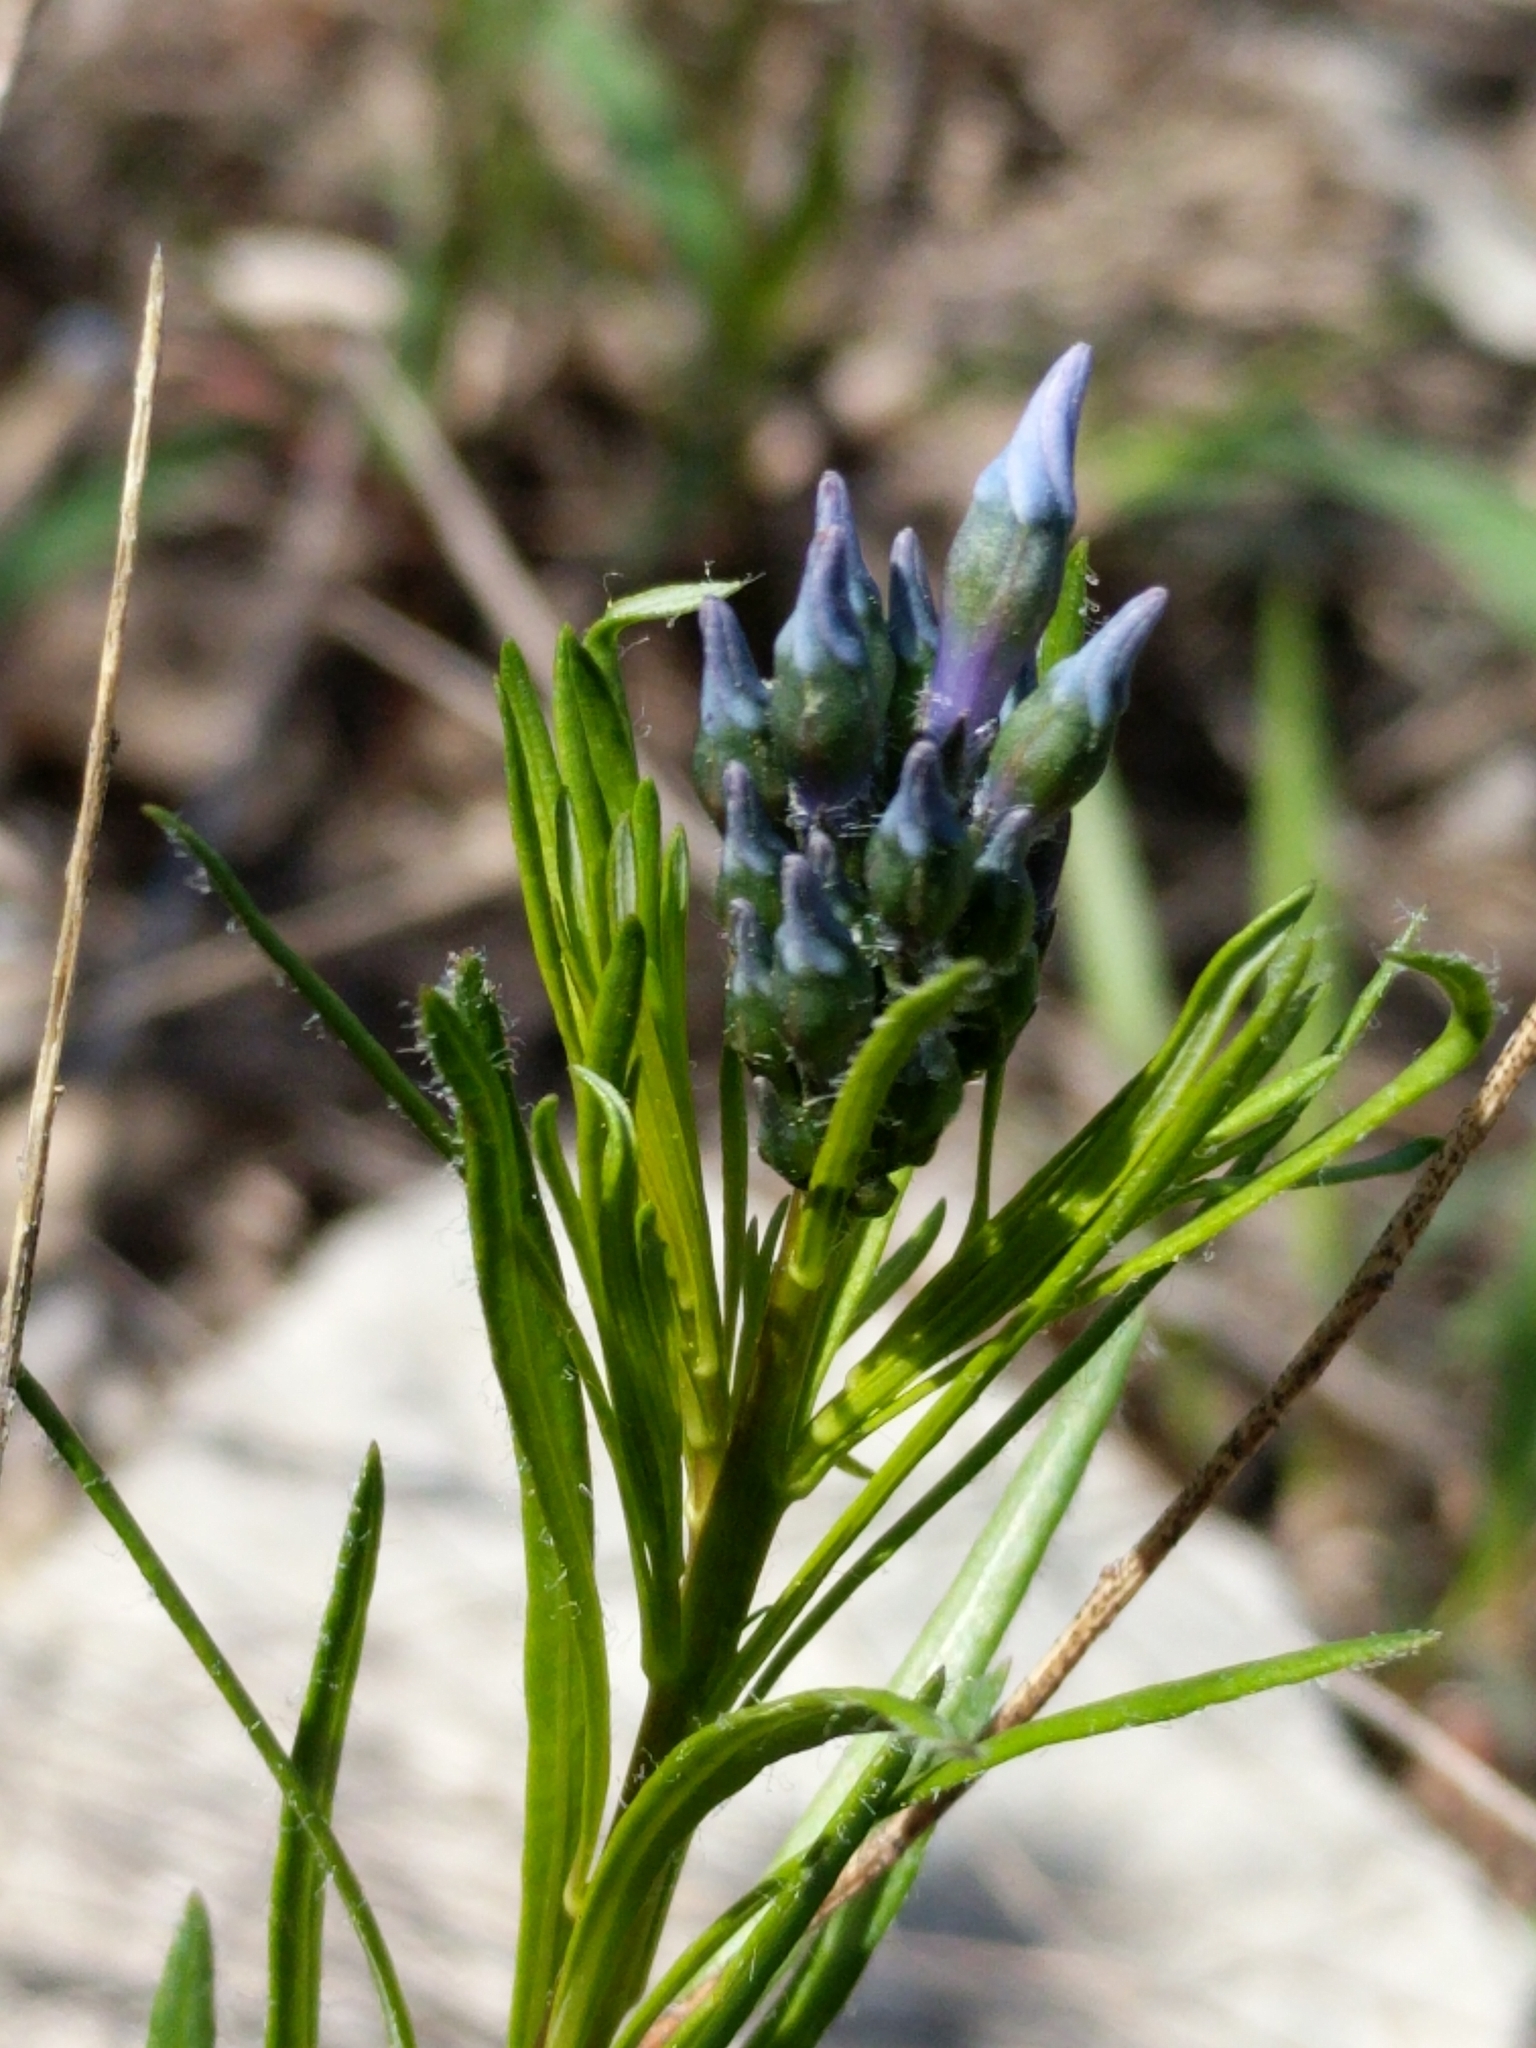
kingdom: Plantae
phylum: Tracheophyta
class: Magnoliopsida
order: Gentianales
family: Apocynaceae
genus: Amsonia
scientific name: Amsonia ciliata
